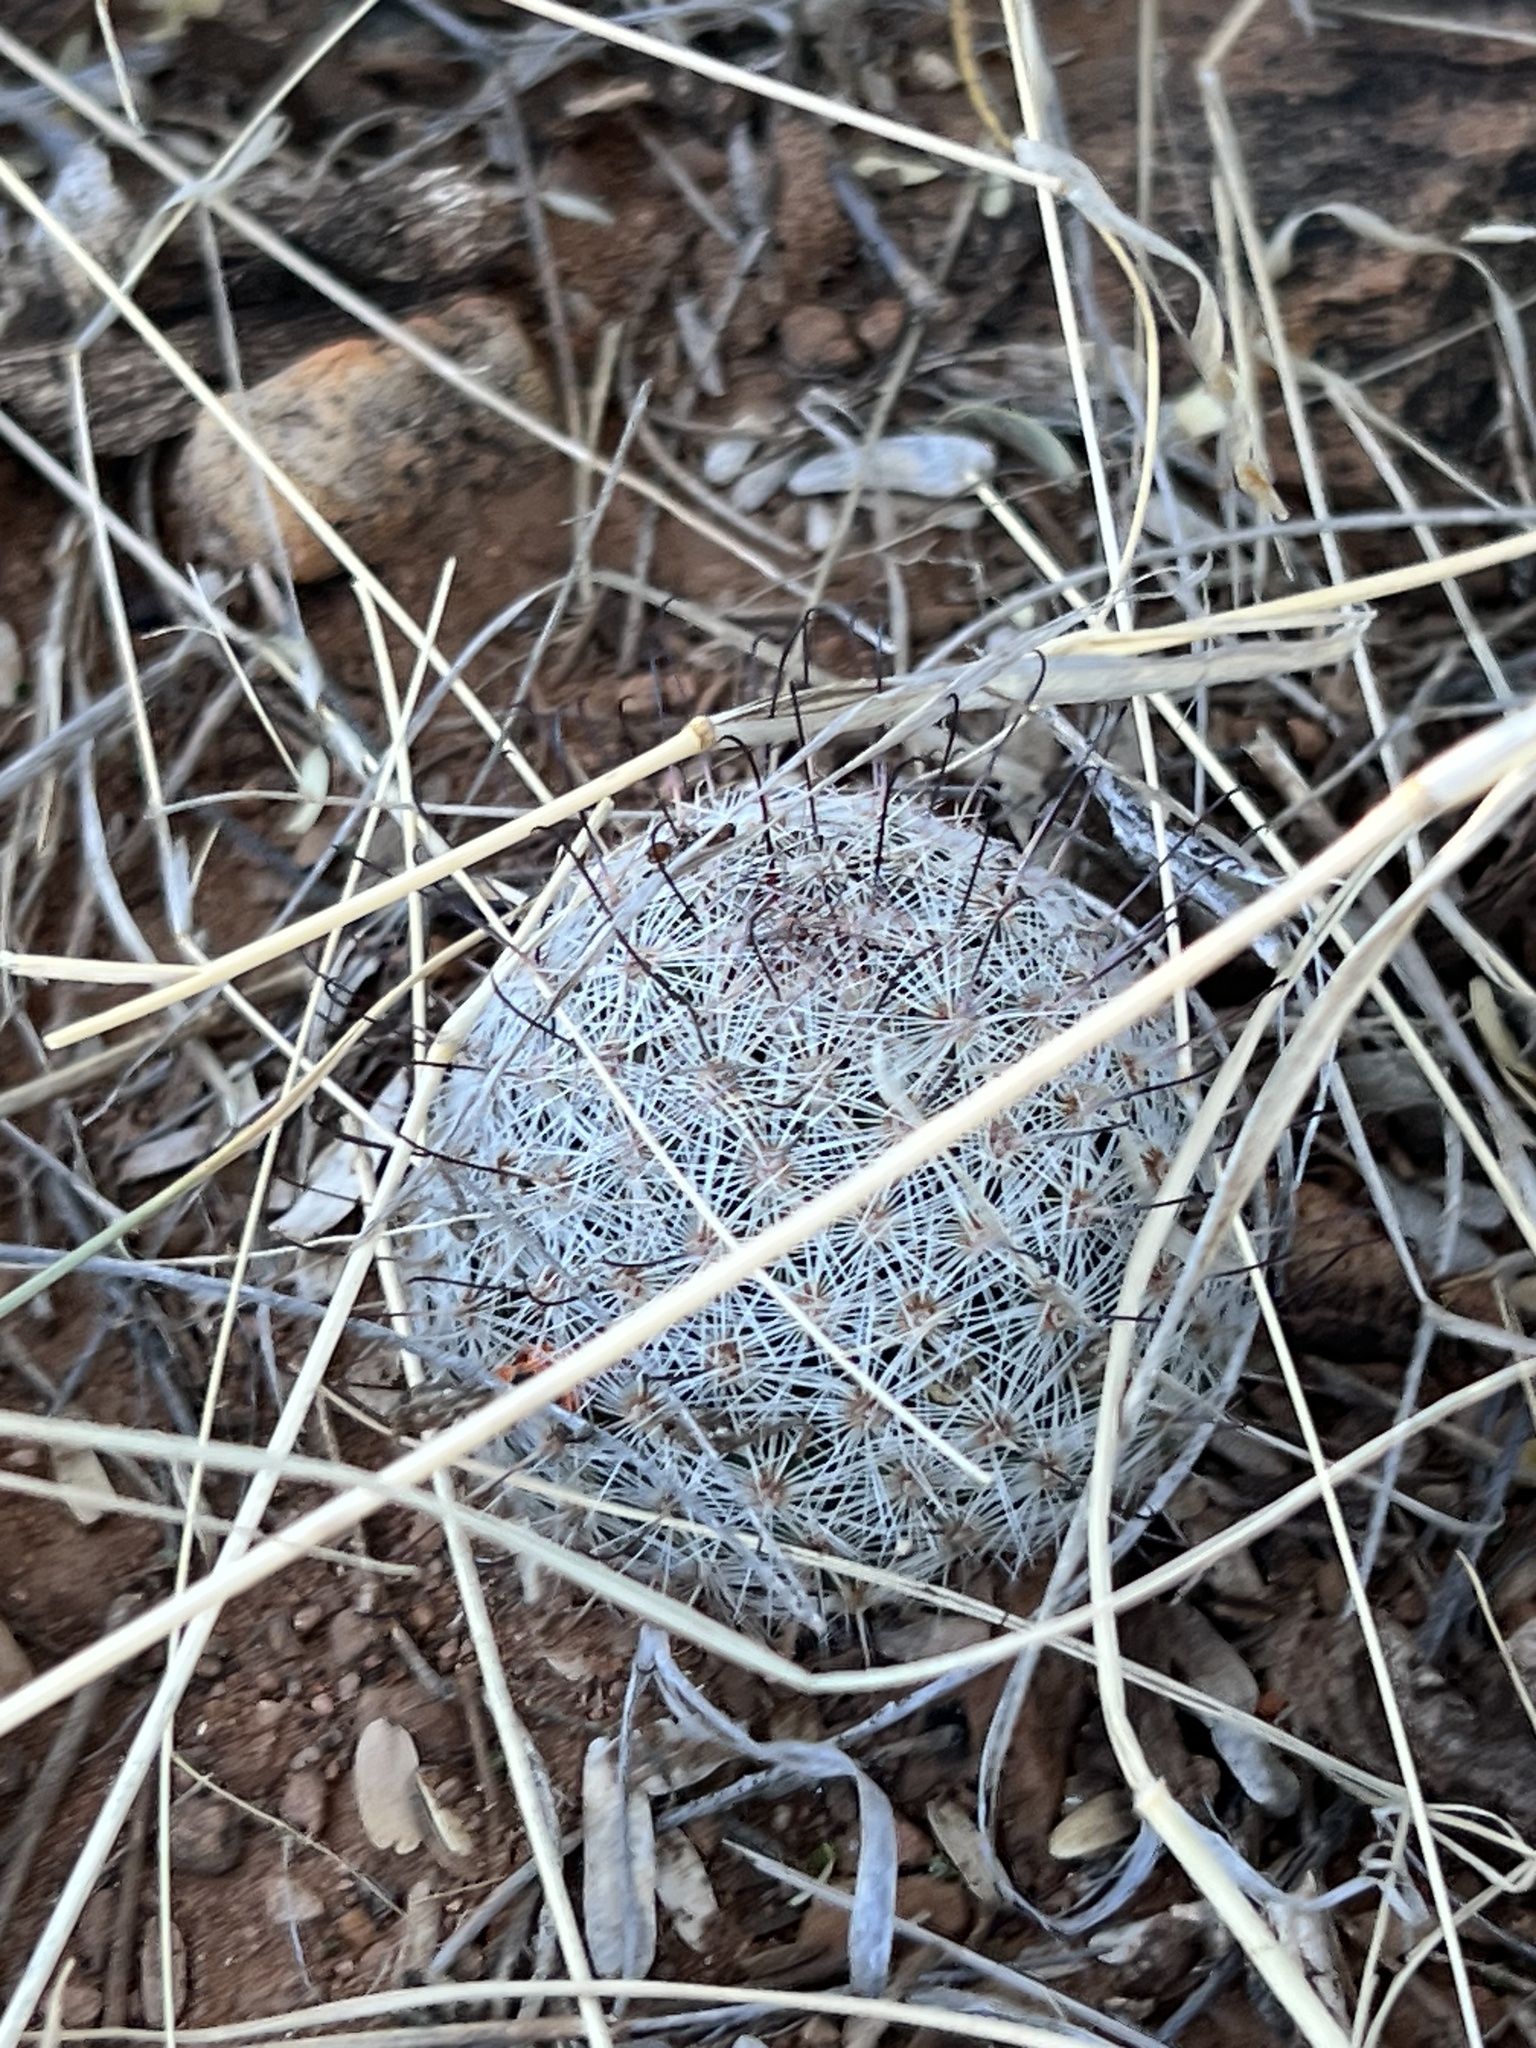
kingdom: Plantae
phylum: Tracheophyta
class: Magnoliopsida
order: Caryophyllales
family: Cactaceae
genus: Cochemiea
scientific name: Cochemiea grahamii
